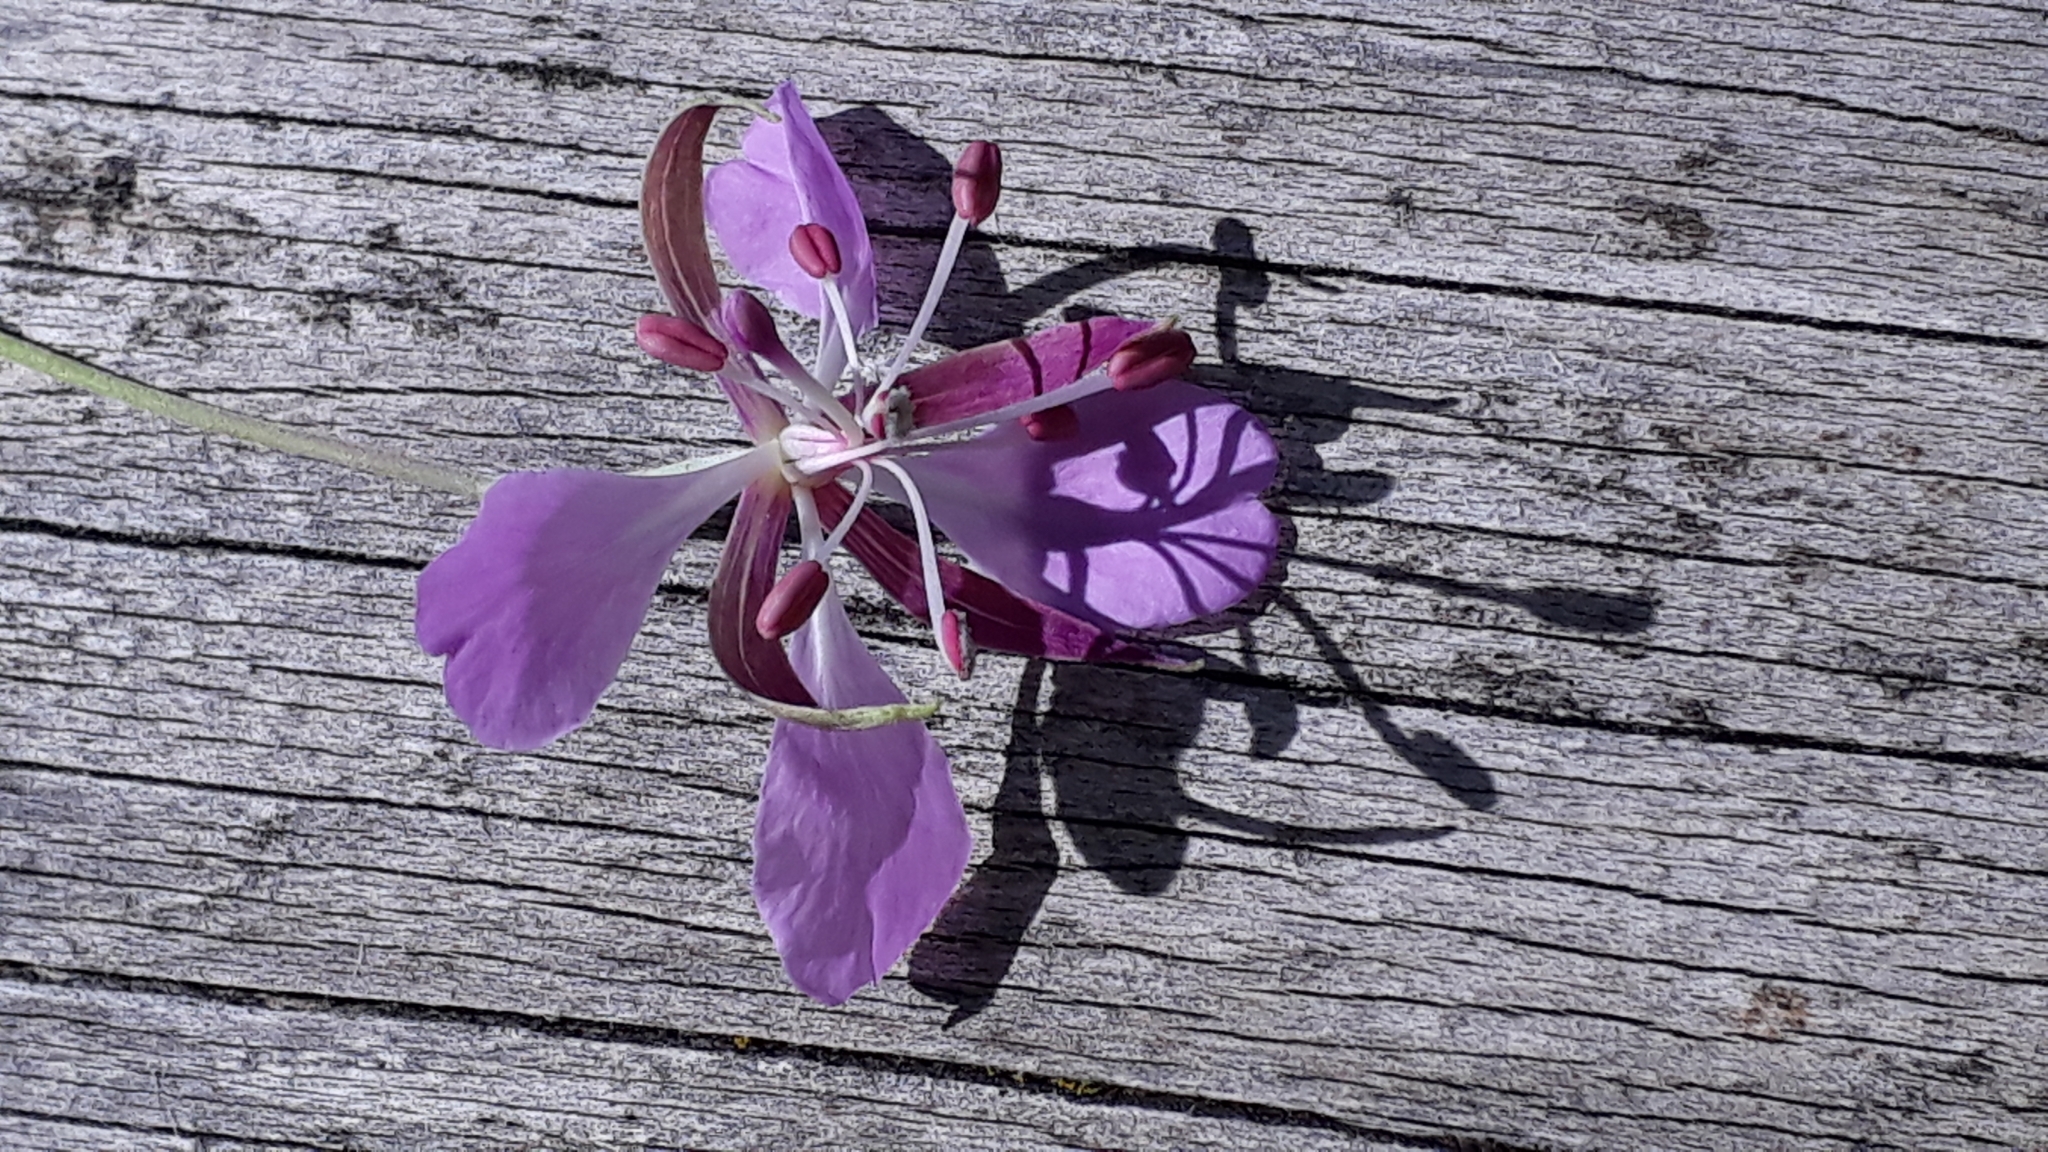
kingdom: Plantae
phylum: Tracheophyta
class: Magnoliopsida
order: Myrtales
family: Onagraceae
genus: Chamaenerion
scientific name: Chamaenerion angustifolium
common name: Fireweed
